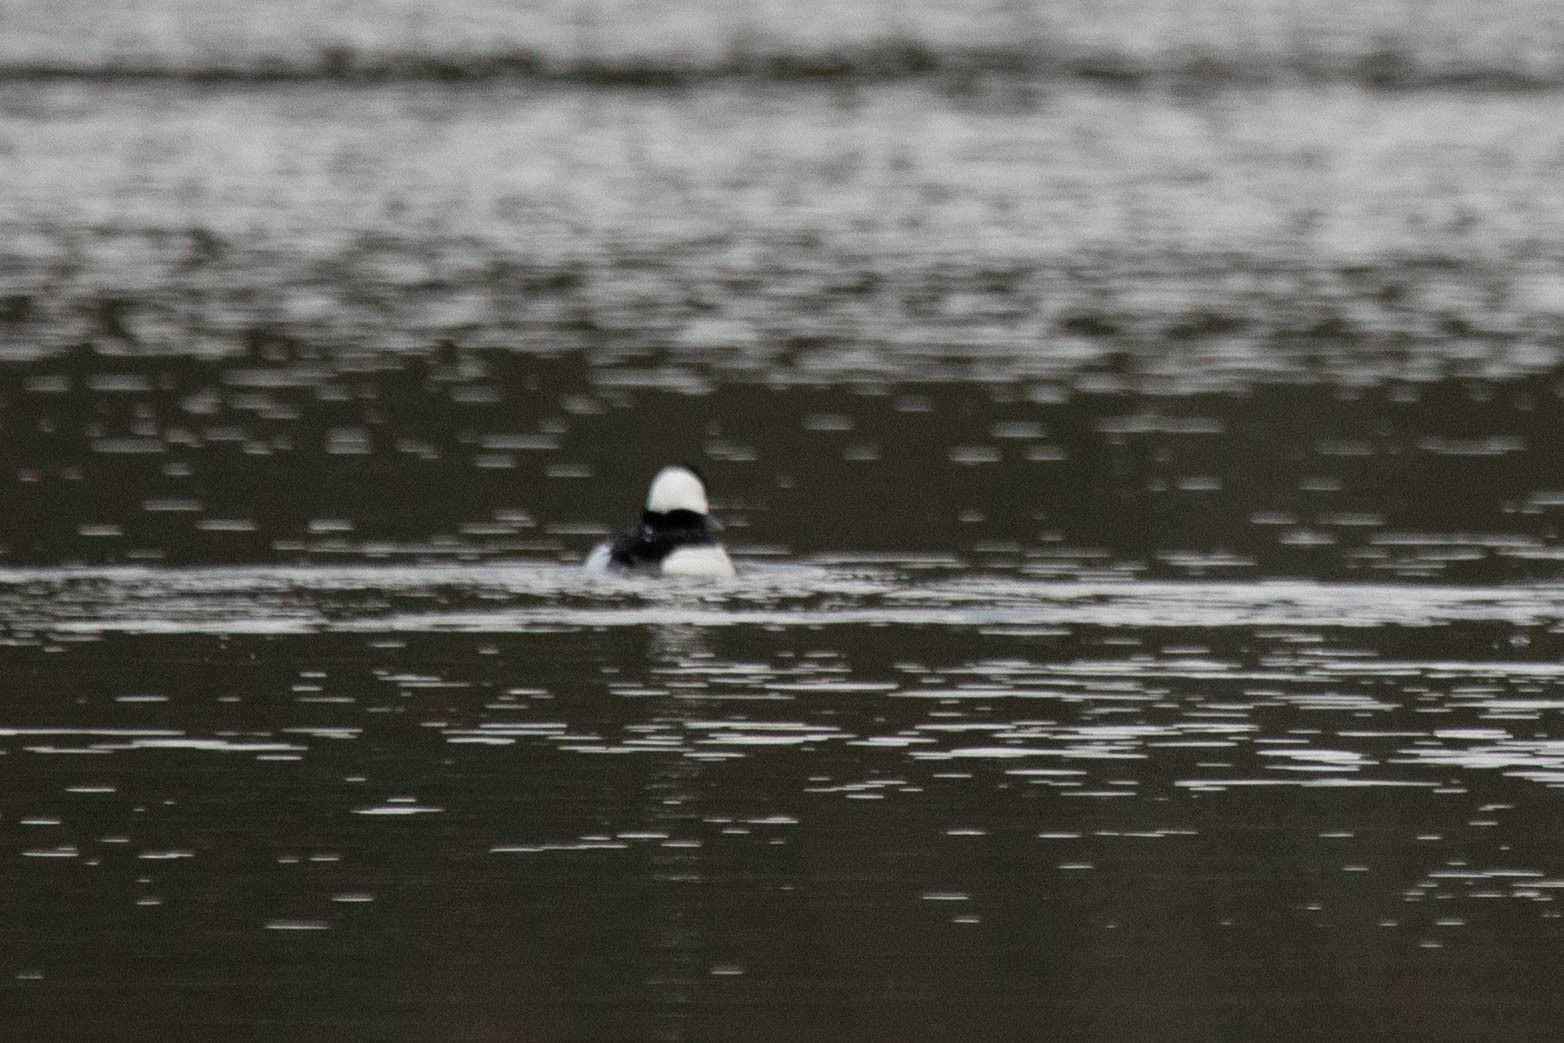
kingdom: Animalia
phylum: Chordata
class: Aves
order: Anseriformes
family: Anatidae
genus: Bucephala
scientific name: Bucephala albeola
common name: Bufflehead
